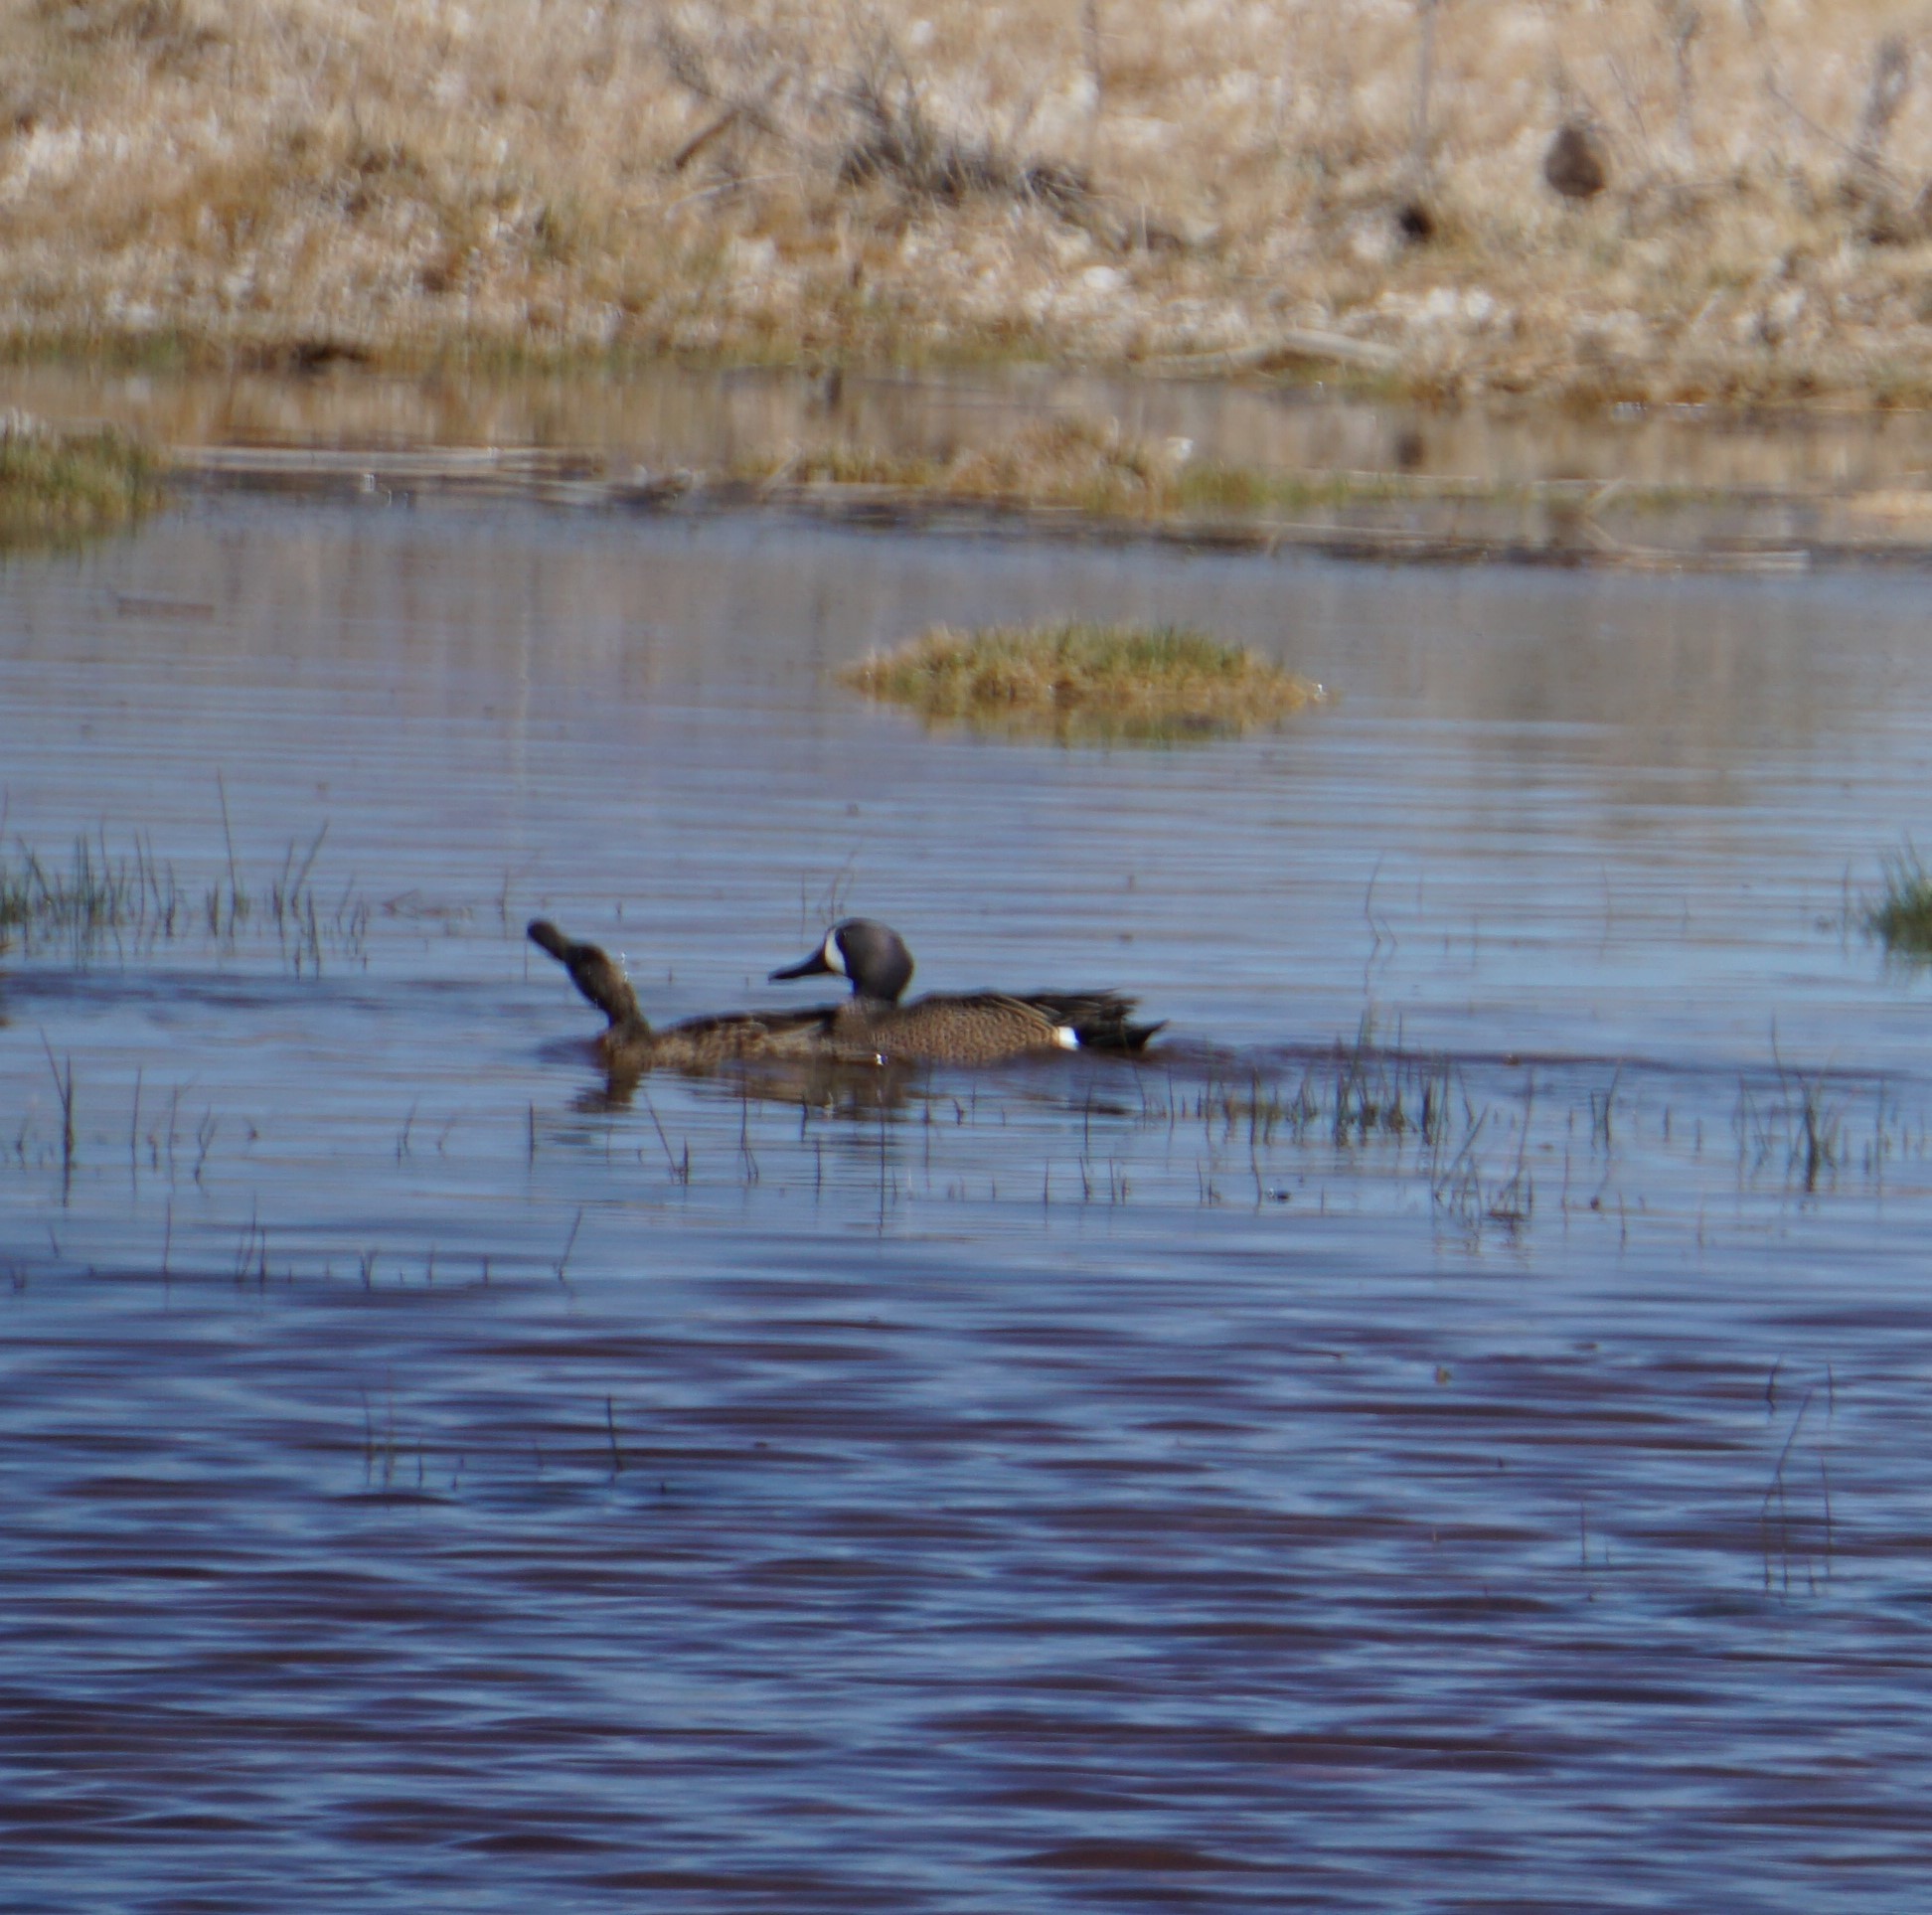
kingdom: Animalia
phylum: Chordata
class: Aves
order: Anseriformes
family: Anatidae
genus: Spatula
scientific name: Spatula discors
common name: Blue-winged teal
